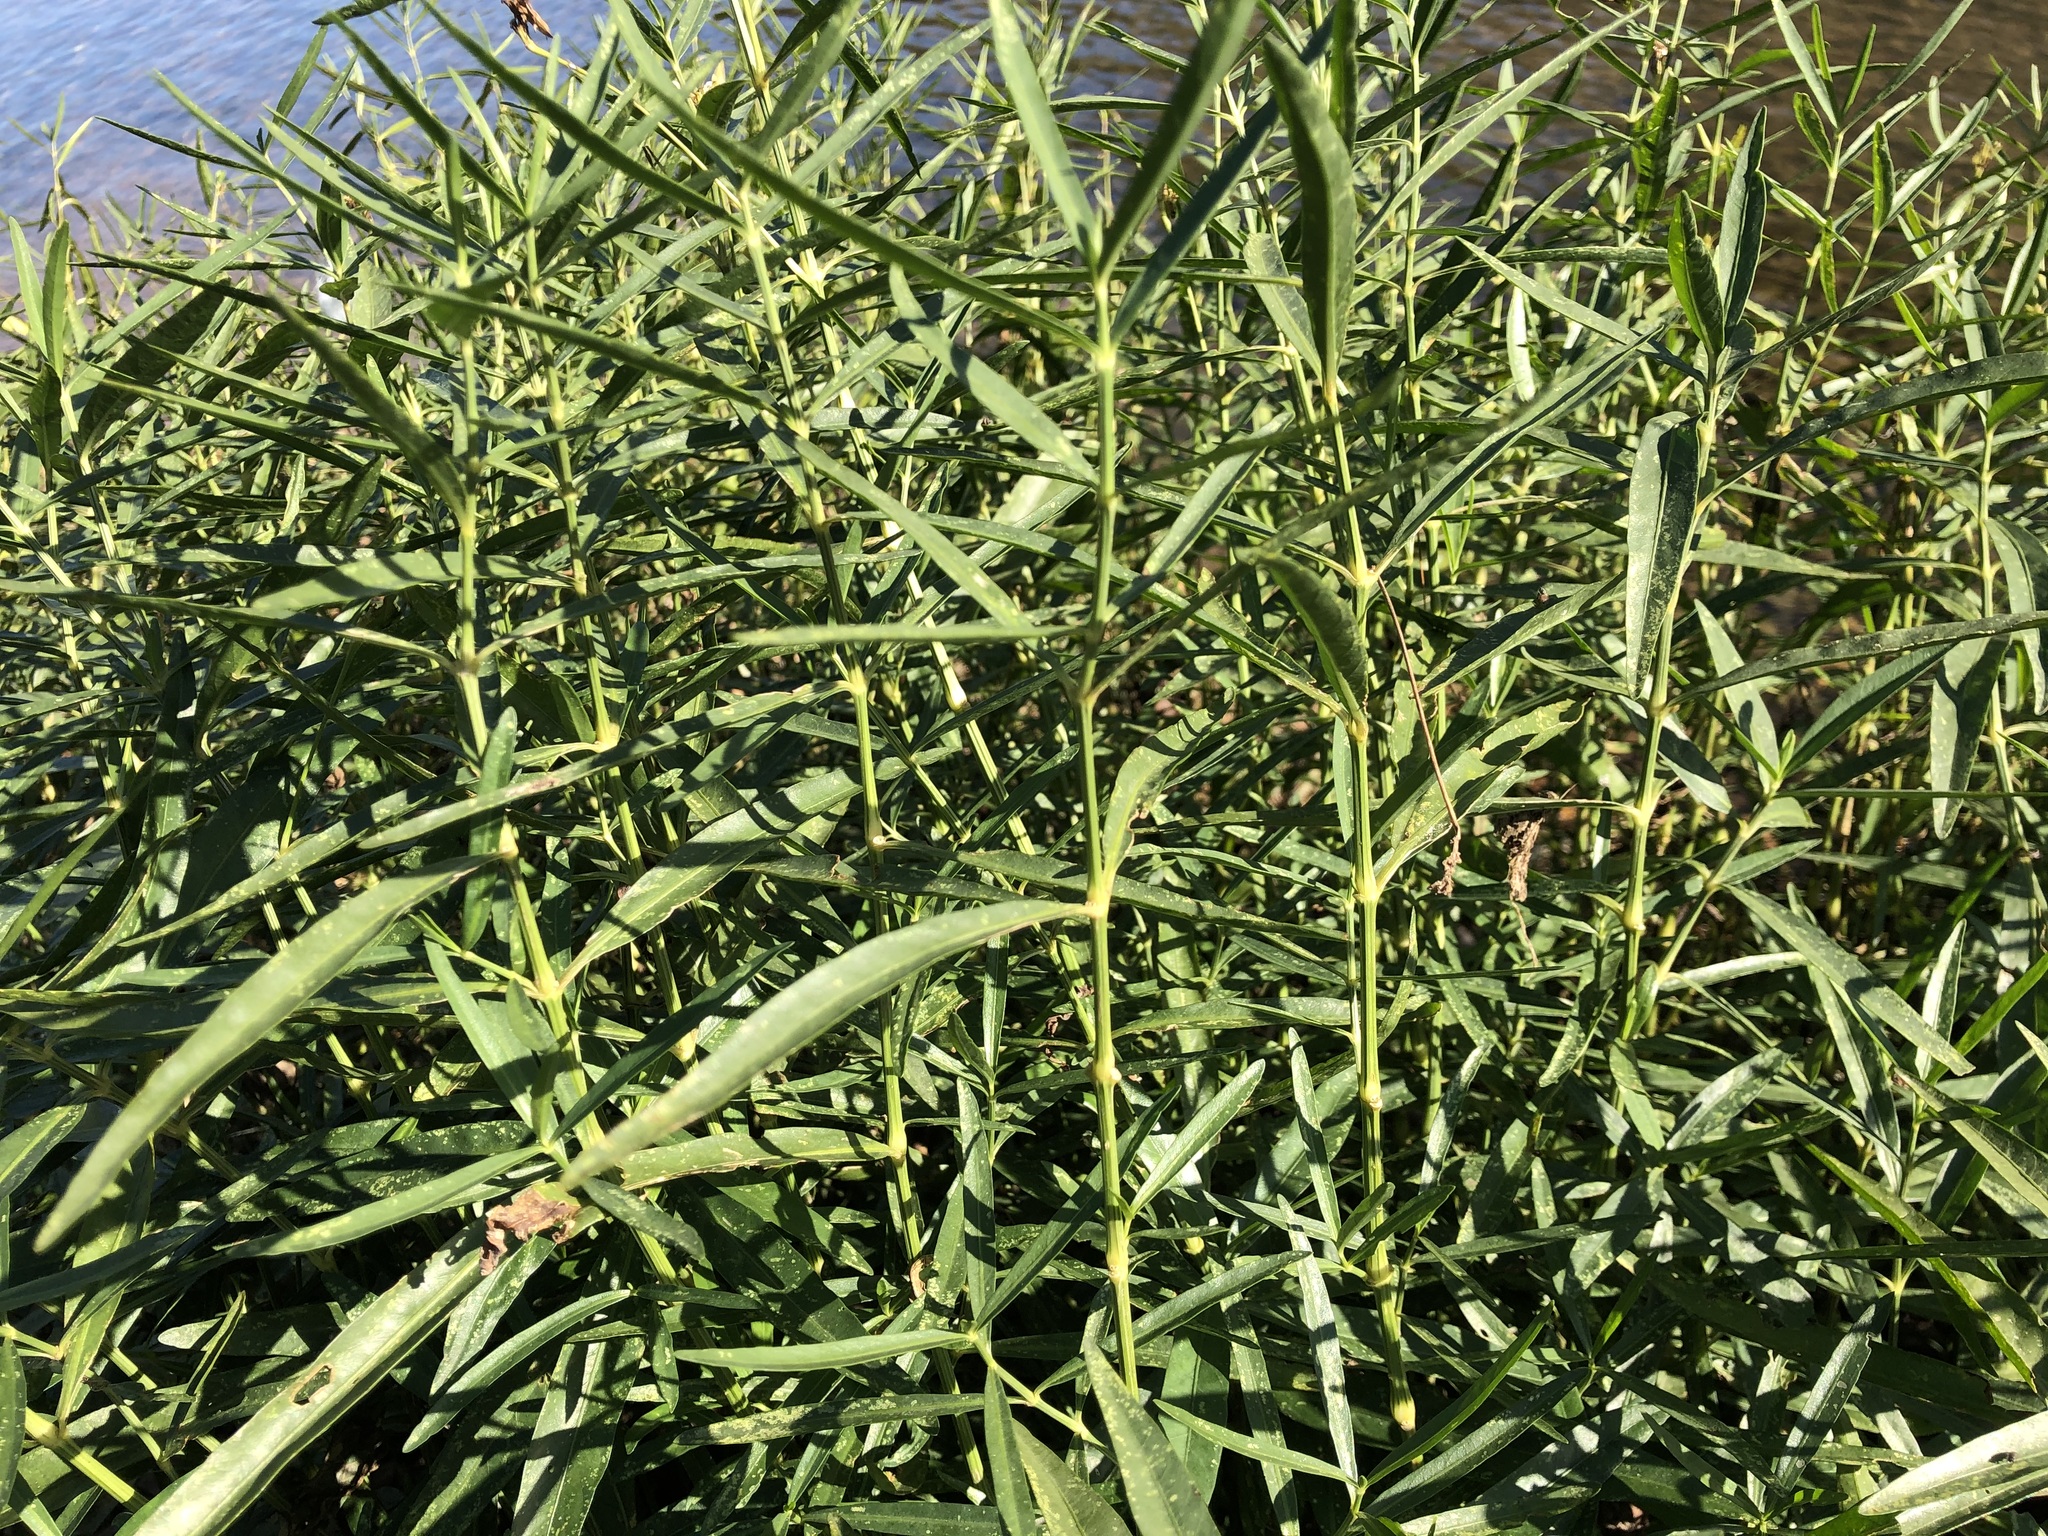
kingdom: Plantae
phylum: Tracheophyta
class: Magnoliopsida
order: Lamiales
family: Acanthaceae
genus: Dianthera
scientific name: Dianthera americana
